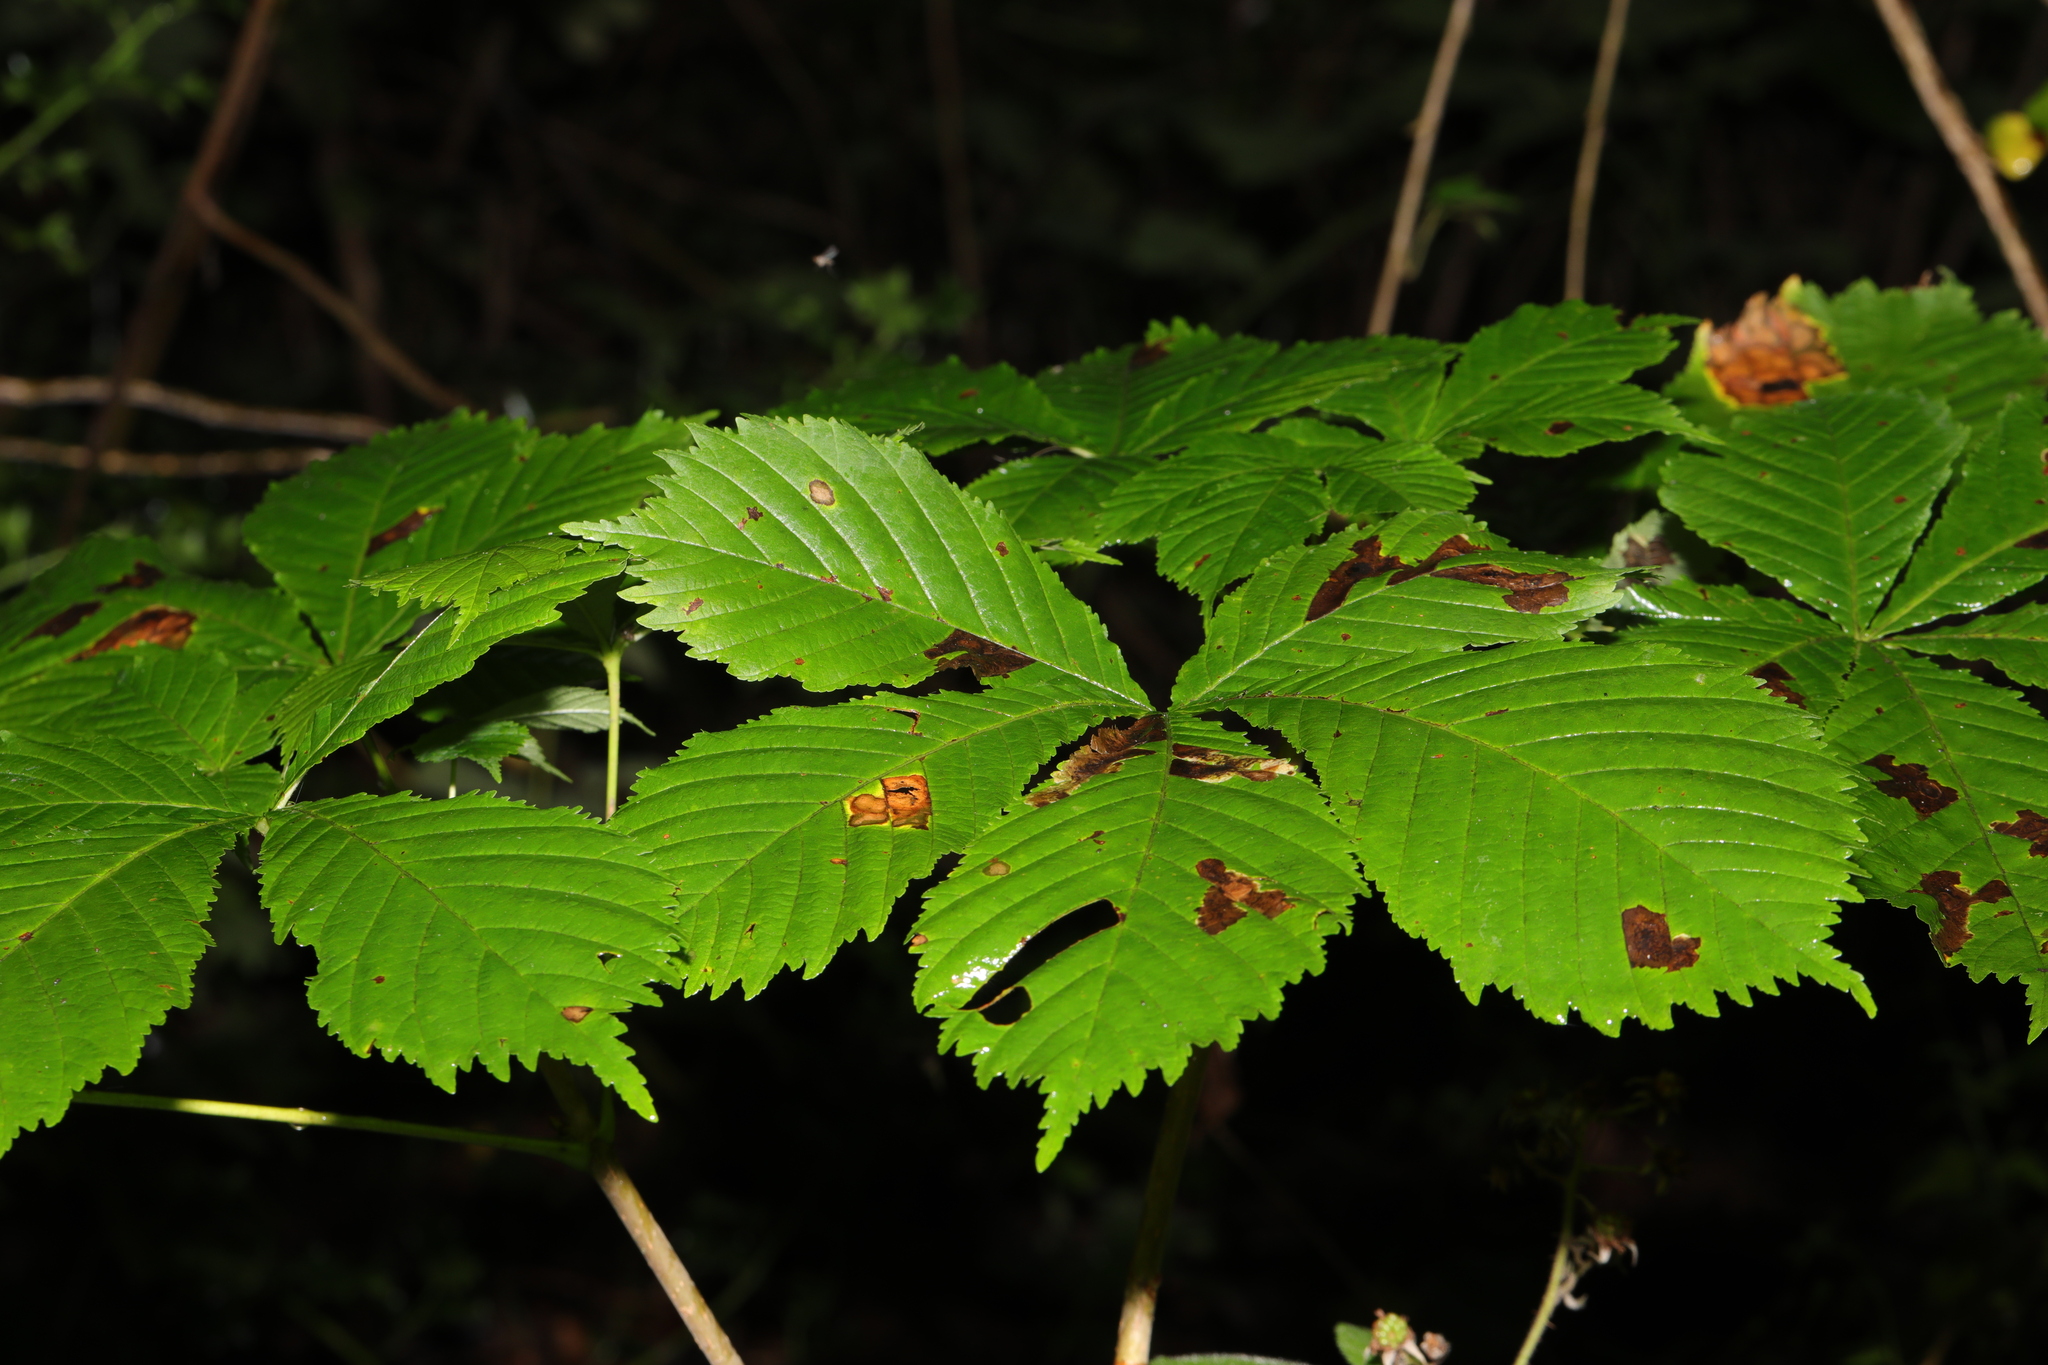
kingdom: Plantae
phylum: Tracheophyta
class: Magnoliopsida
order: Sapindales
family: Sapindaceae
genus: Aesculus
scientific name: Aesculus hippocastanum
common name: Horse-chestnut
